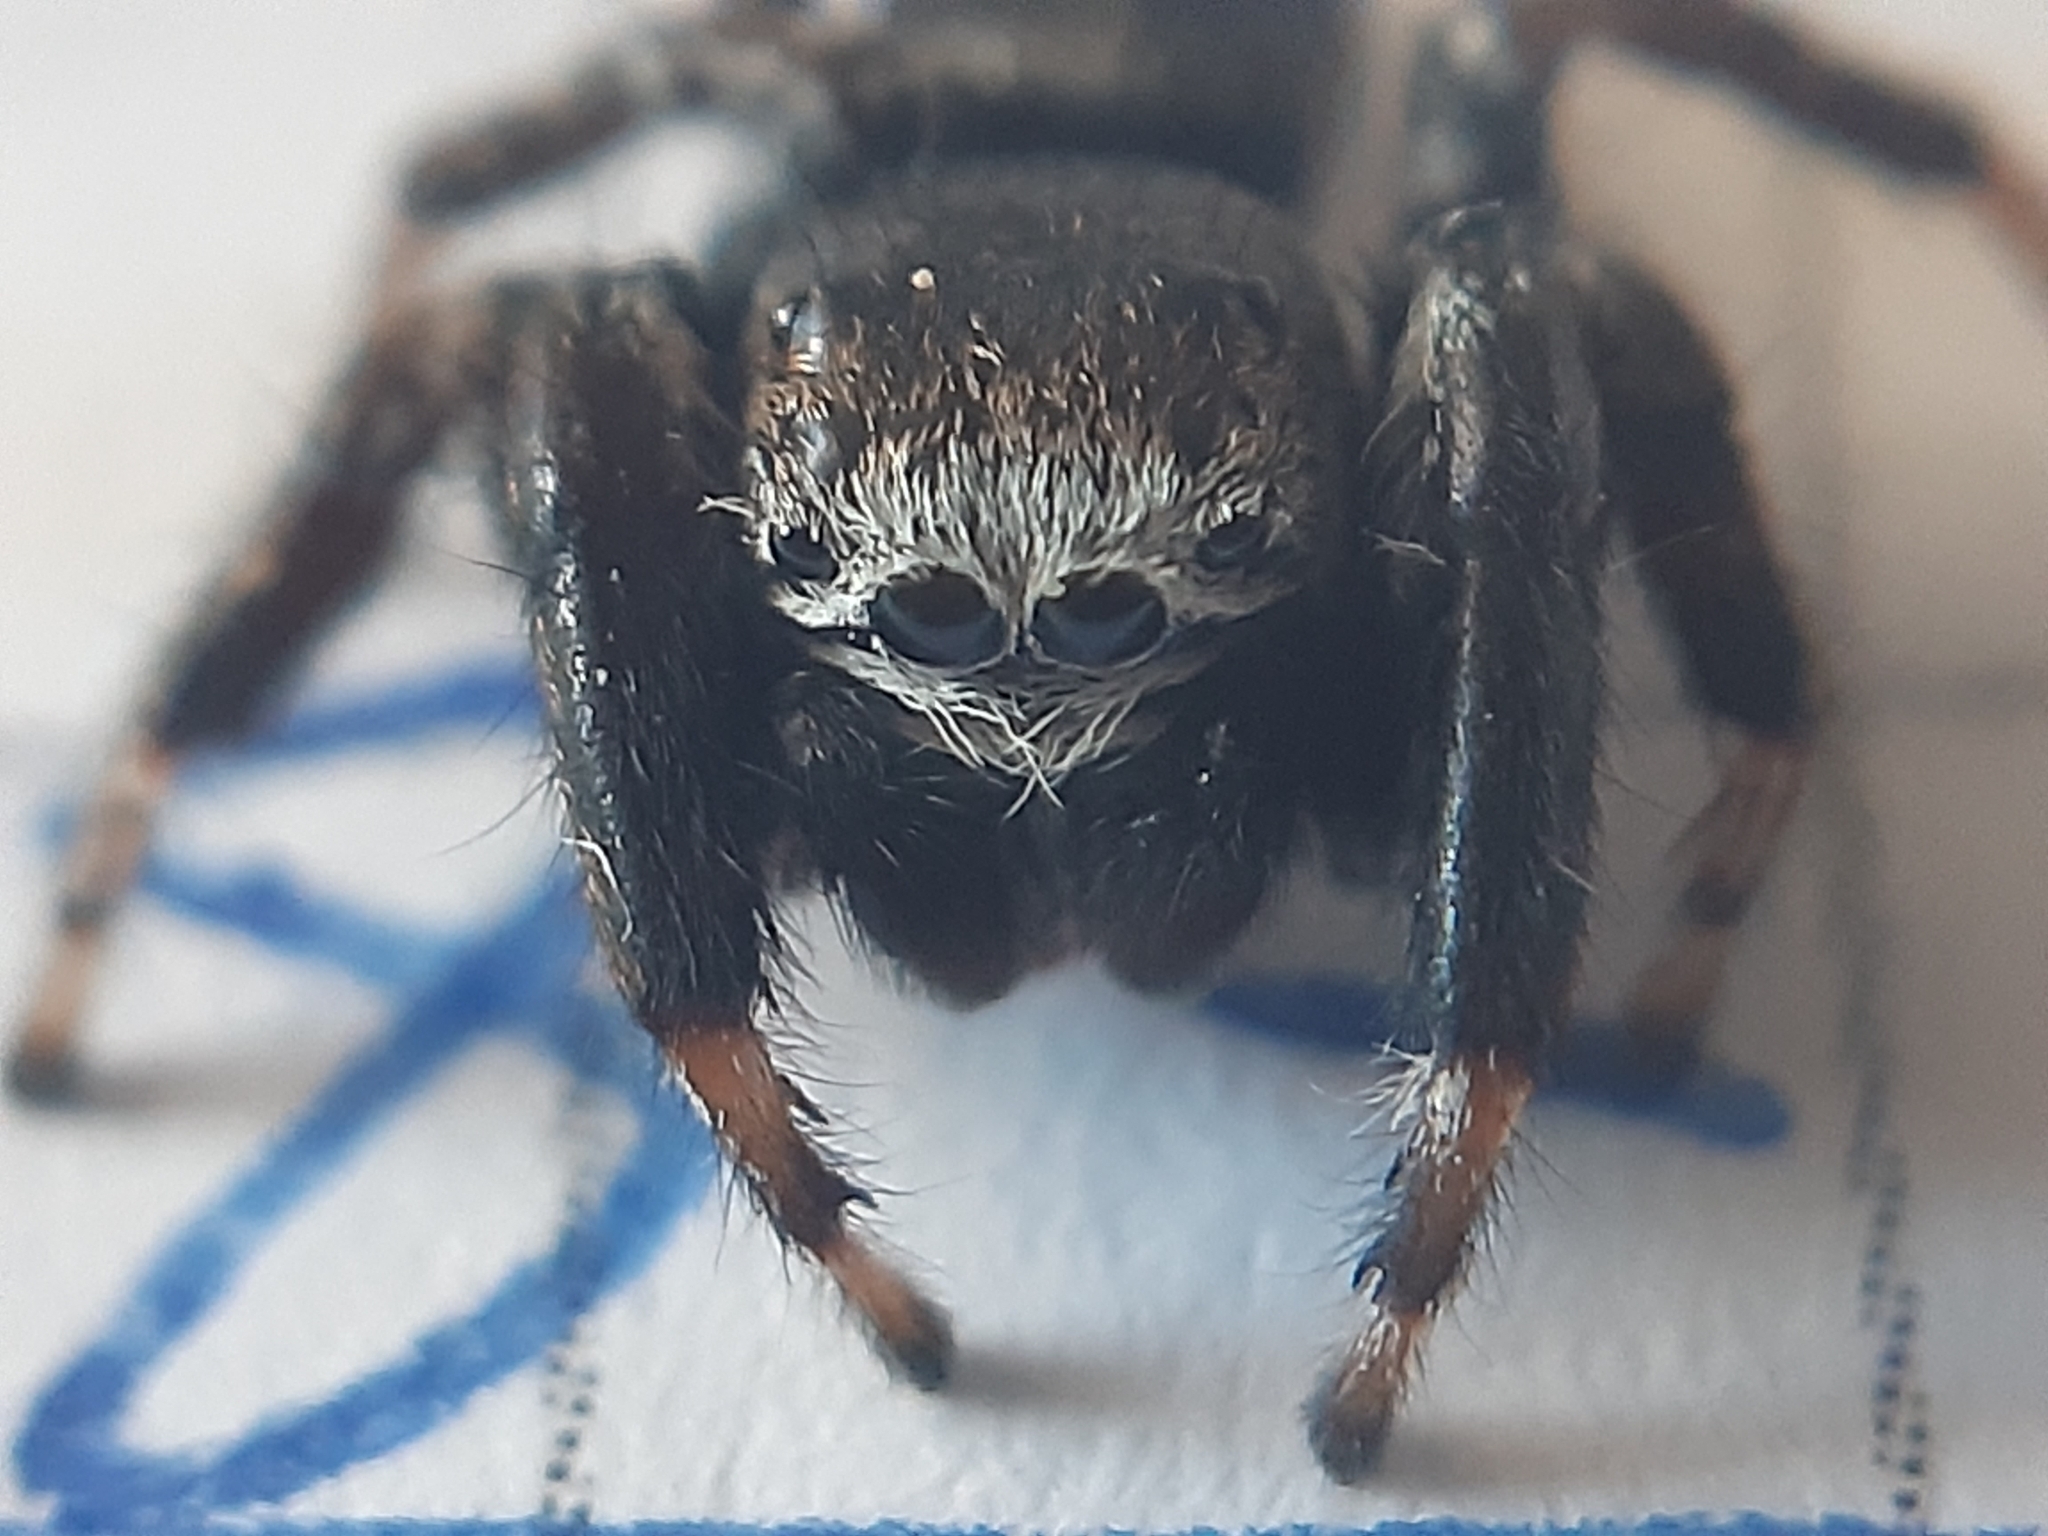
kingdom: Animalia
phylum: Arthropoda
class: Arachnida
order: Araneae
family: Salticidae
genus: Evarcha
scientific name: Evarcha arcuata
